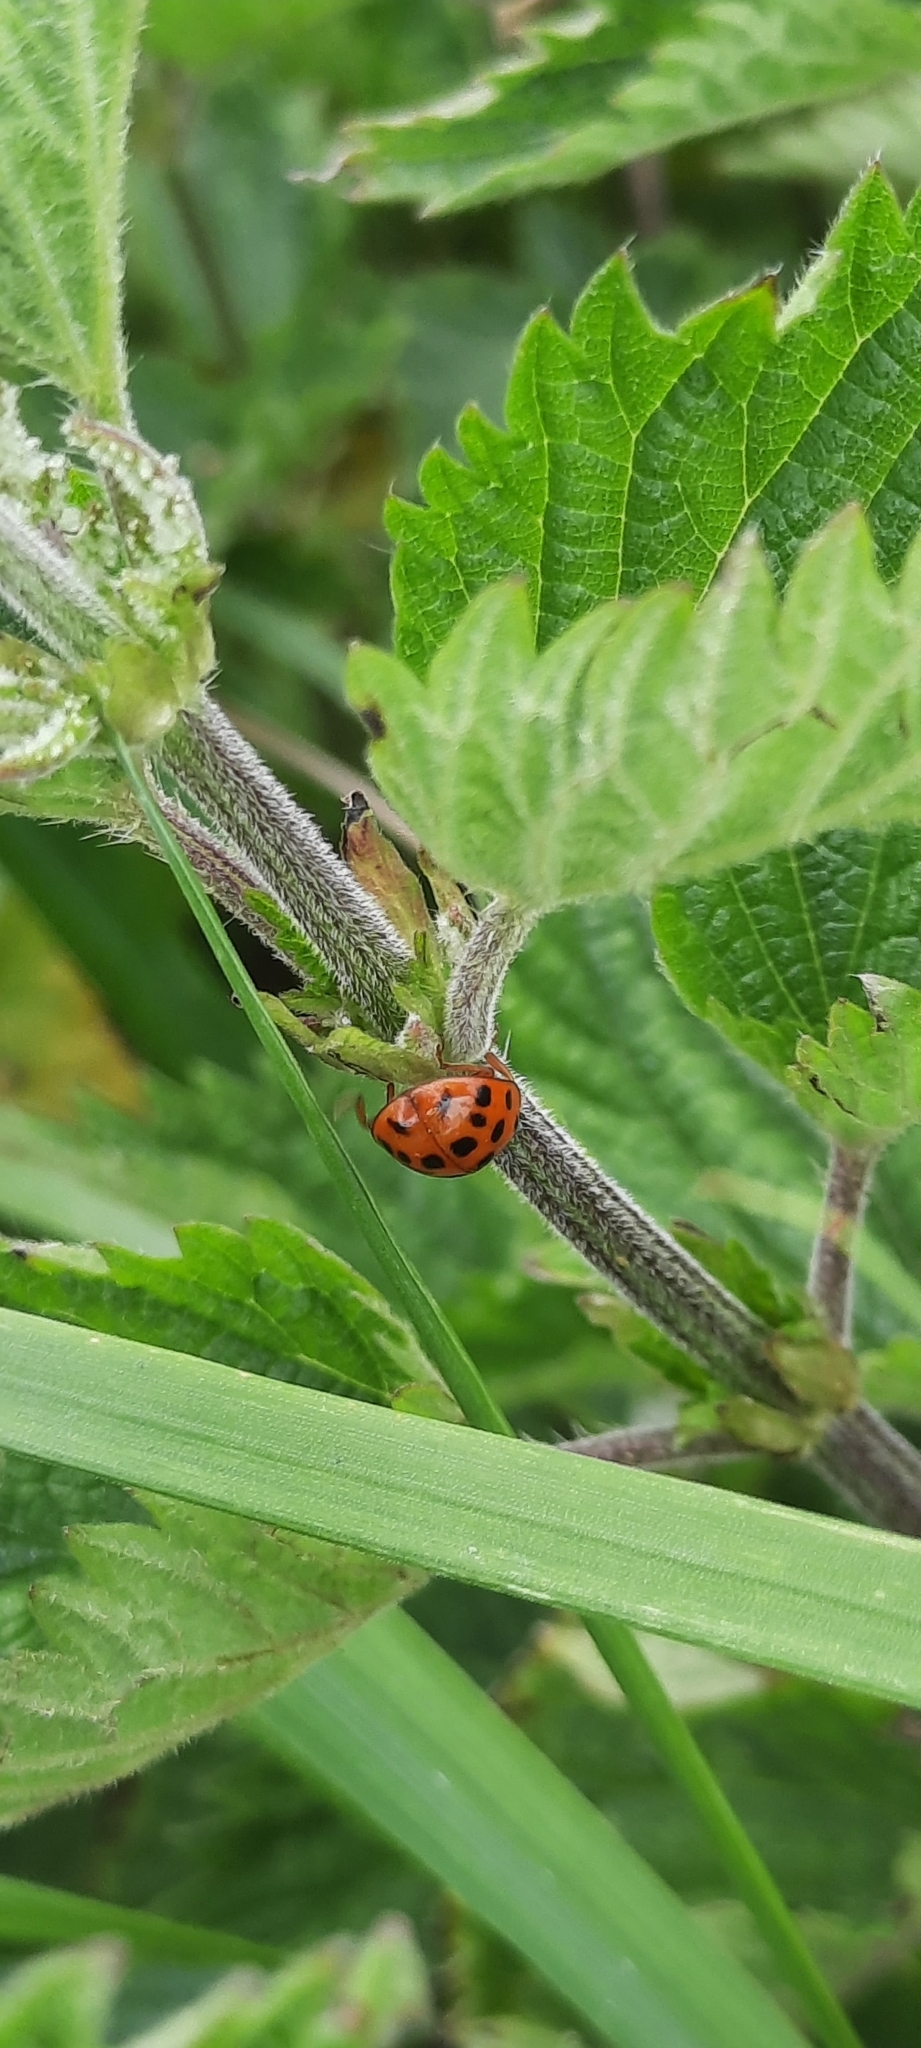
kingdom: Animalia
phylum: Arthropoda
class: Insecta
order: Coleoptera
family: Coccinellidae
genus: Harmonia
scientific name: Harmonia axyridis
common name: Harlequin ladybird
